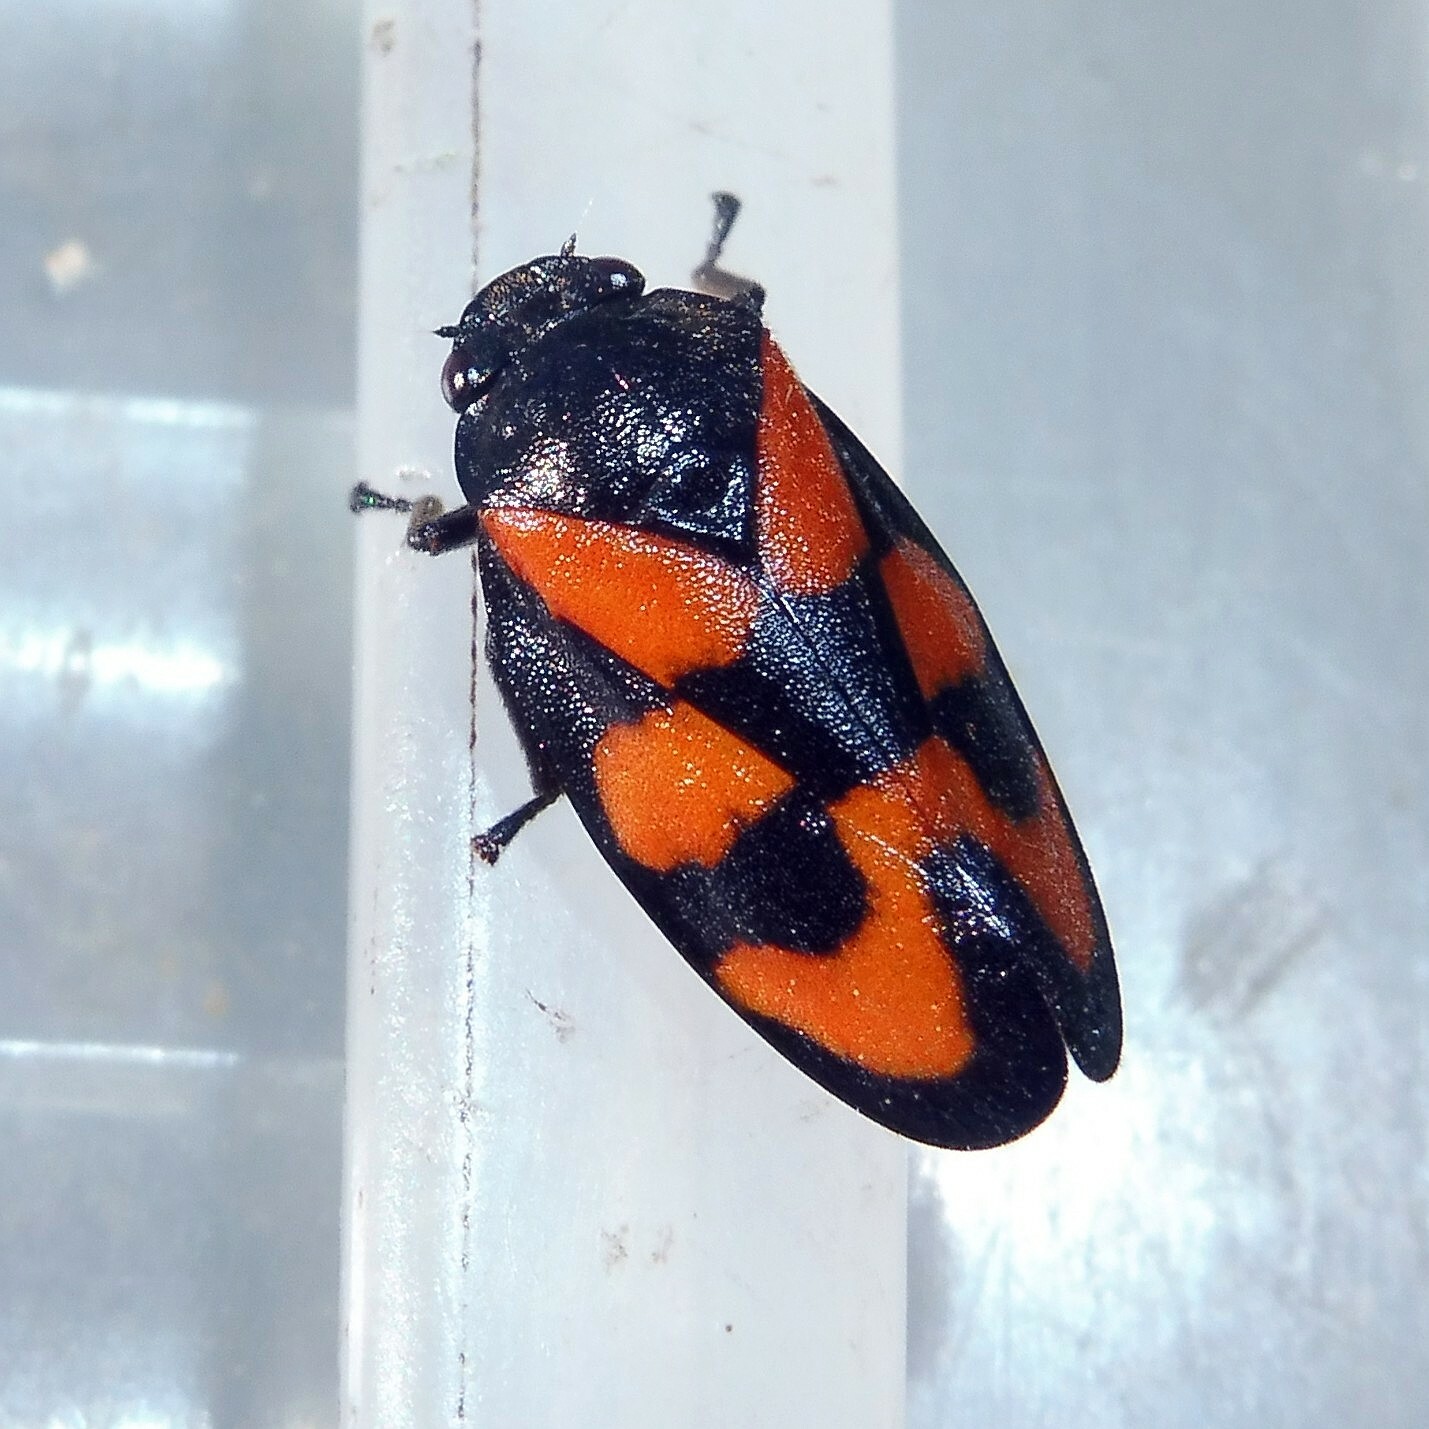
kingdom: Animalia
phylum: Arthropoda
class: Insecta
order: Hemiptera
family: Cercopidae
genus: Cercopis
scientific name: Cercopis vulnerata
